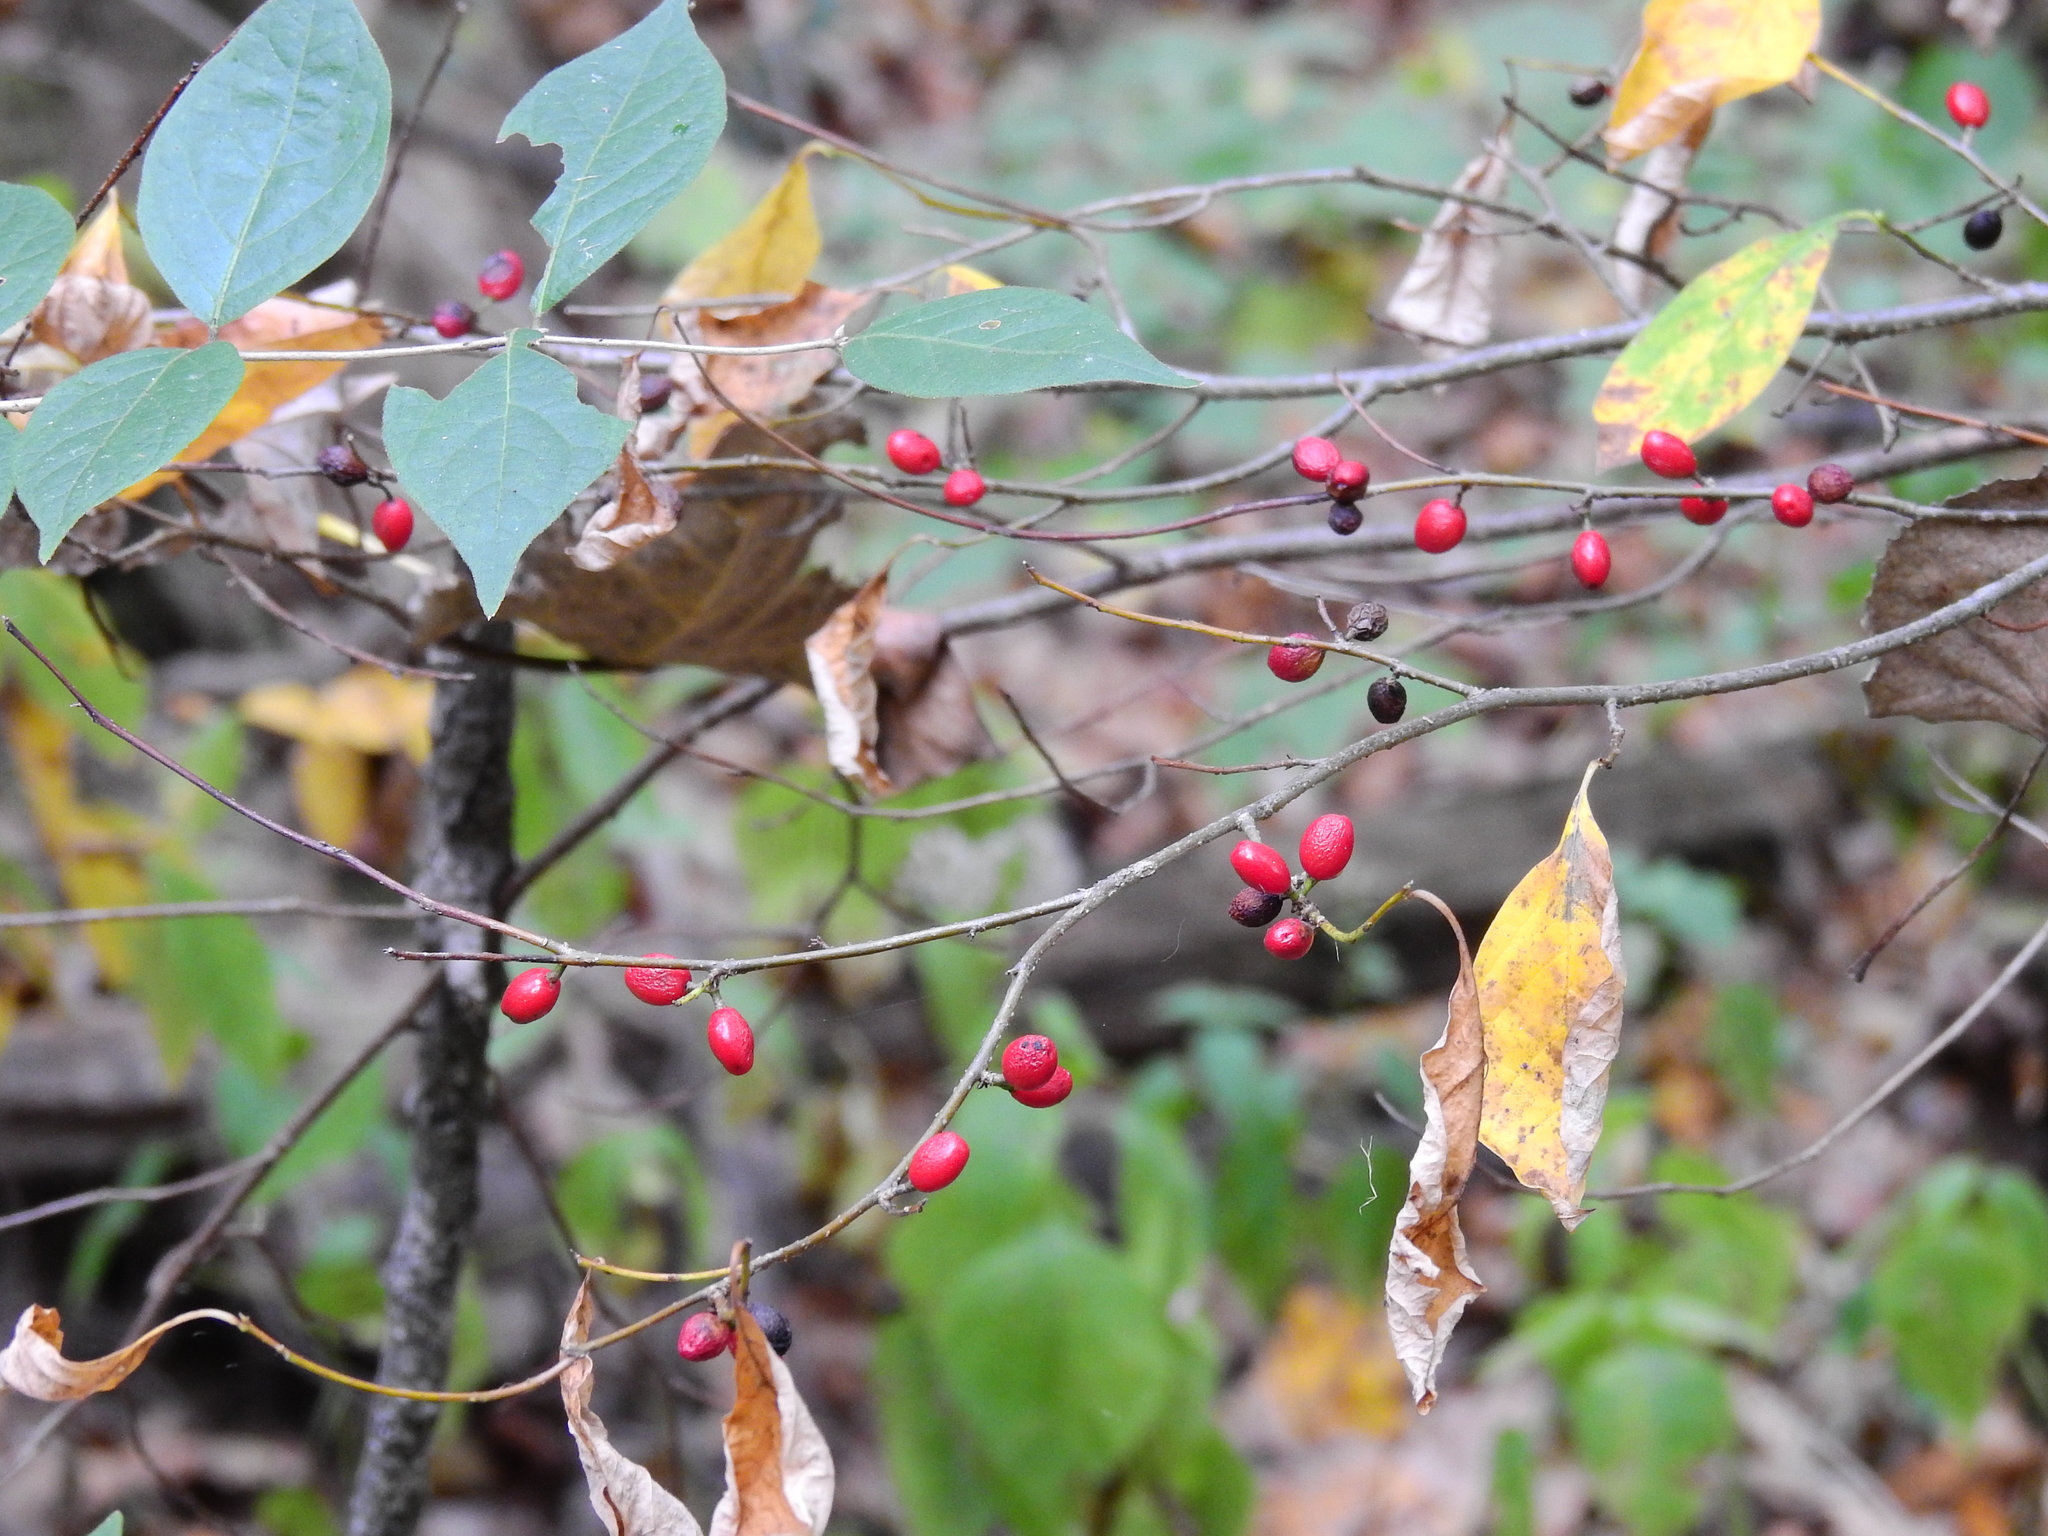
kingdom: Plantae
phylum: Tracheophyta
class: Magnoliopsida
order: Laurales
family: Lauraceae
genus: Lindera
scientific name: Lindera benzoin
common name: Spicebush
